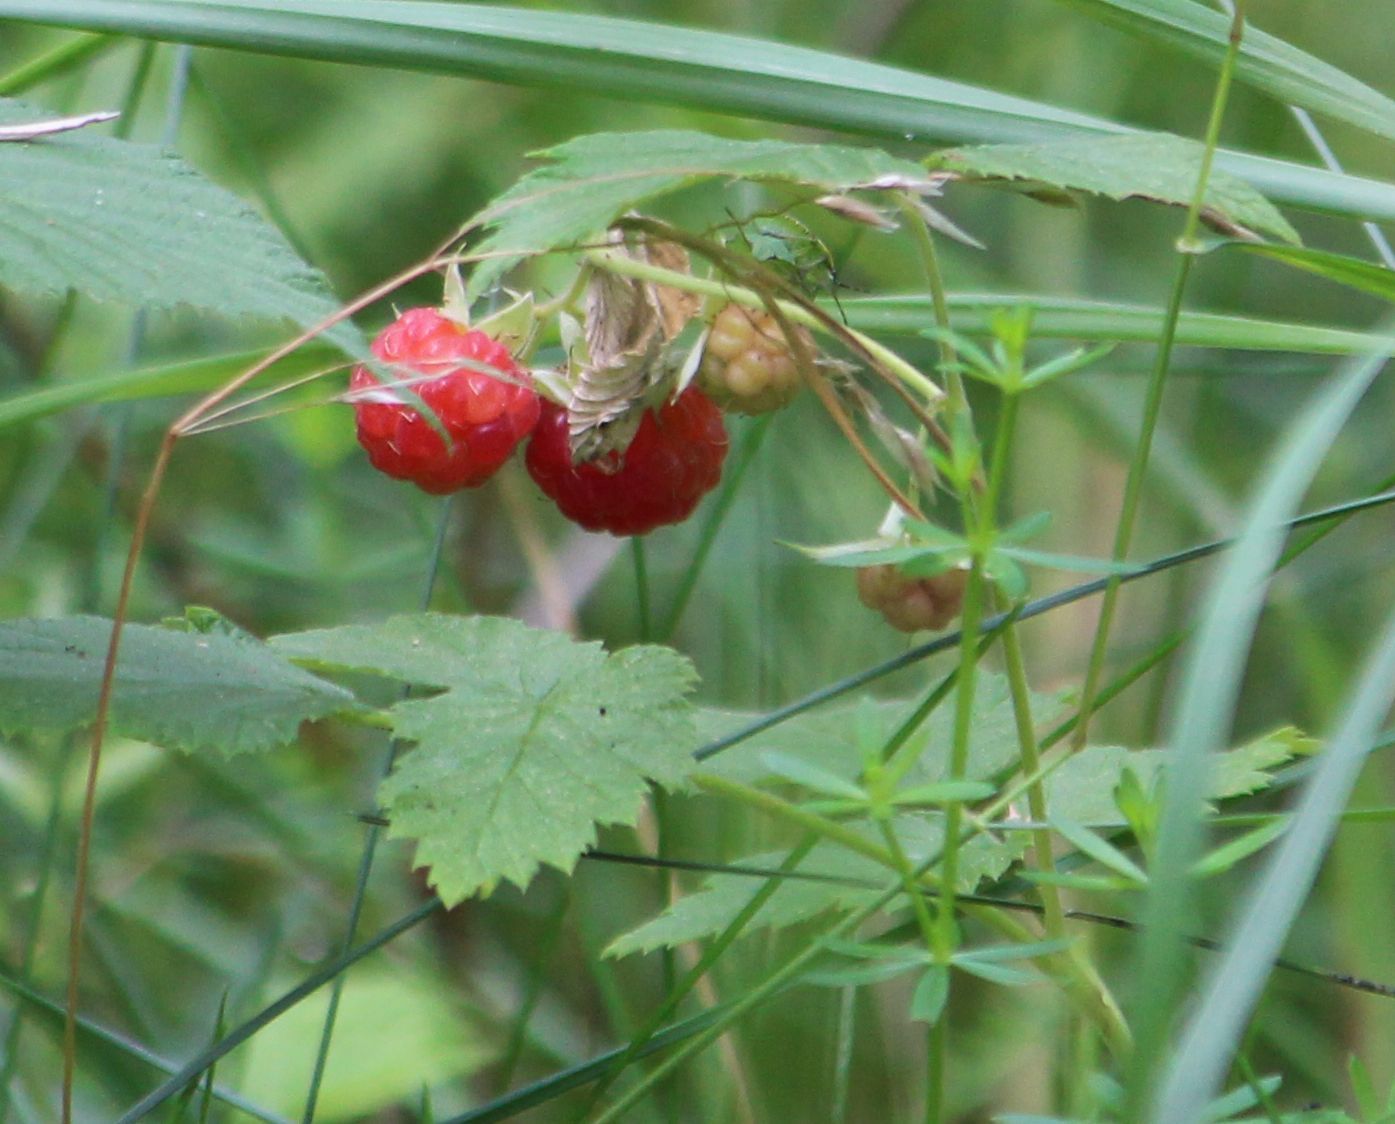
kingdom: Plantae
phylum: Tracheophyta
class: Magnoliopsida
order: Rosales
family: Rosaceae
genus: Rubus
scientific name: Rubus idaeus
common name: Raspberry
